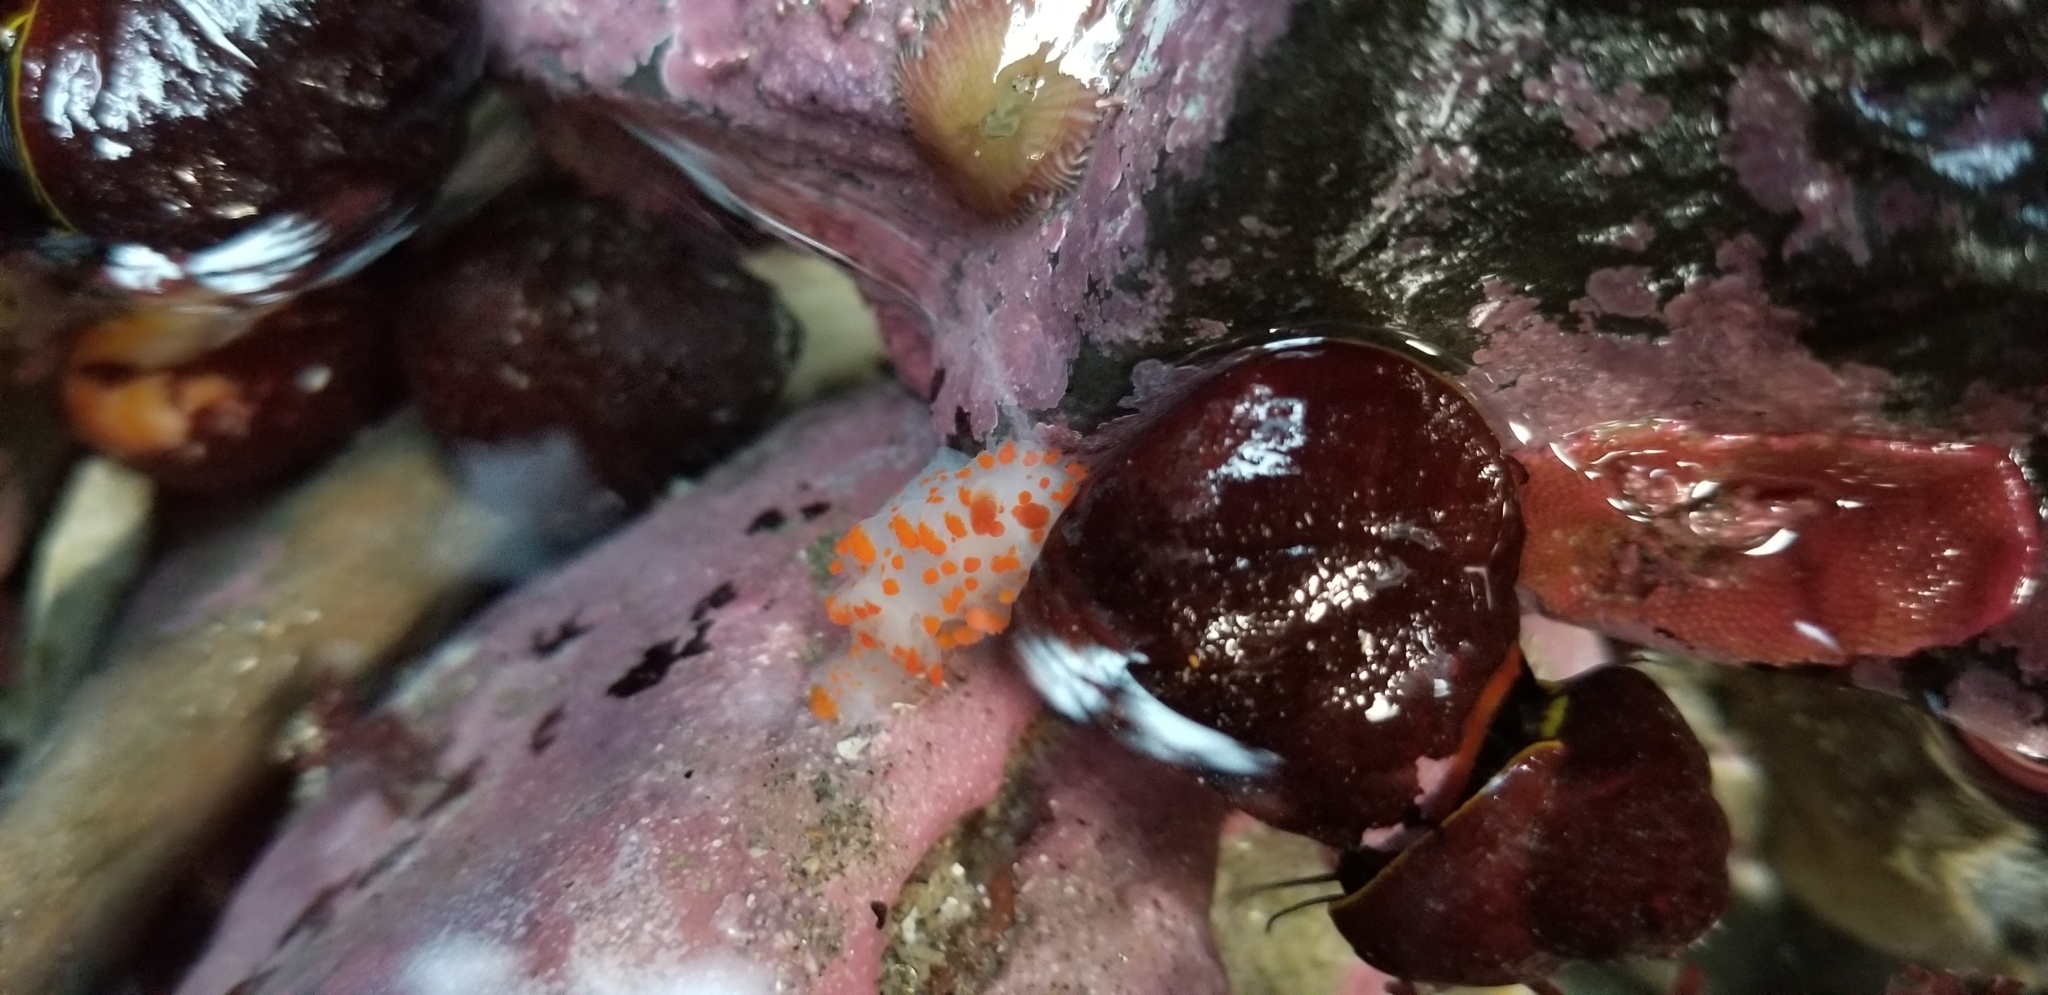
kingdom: Animalia
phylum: Mollusca
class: Gastropoda
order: Nudibranchia
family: Polyceridae
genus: Triopha
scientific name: Triopha catalinae
